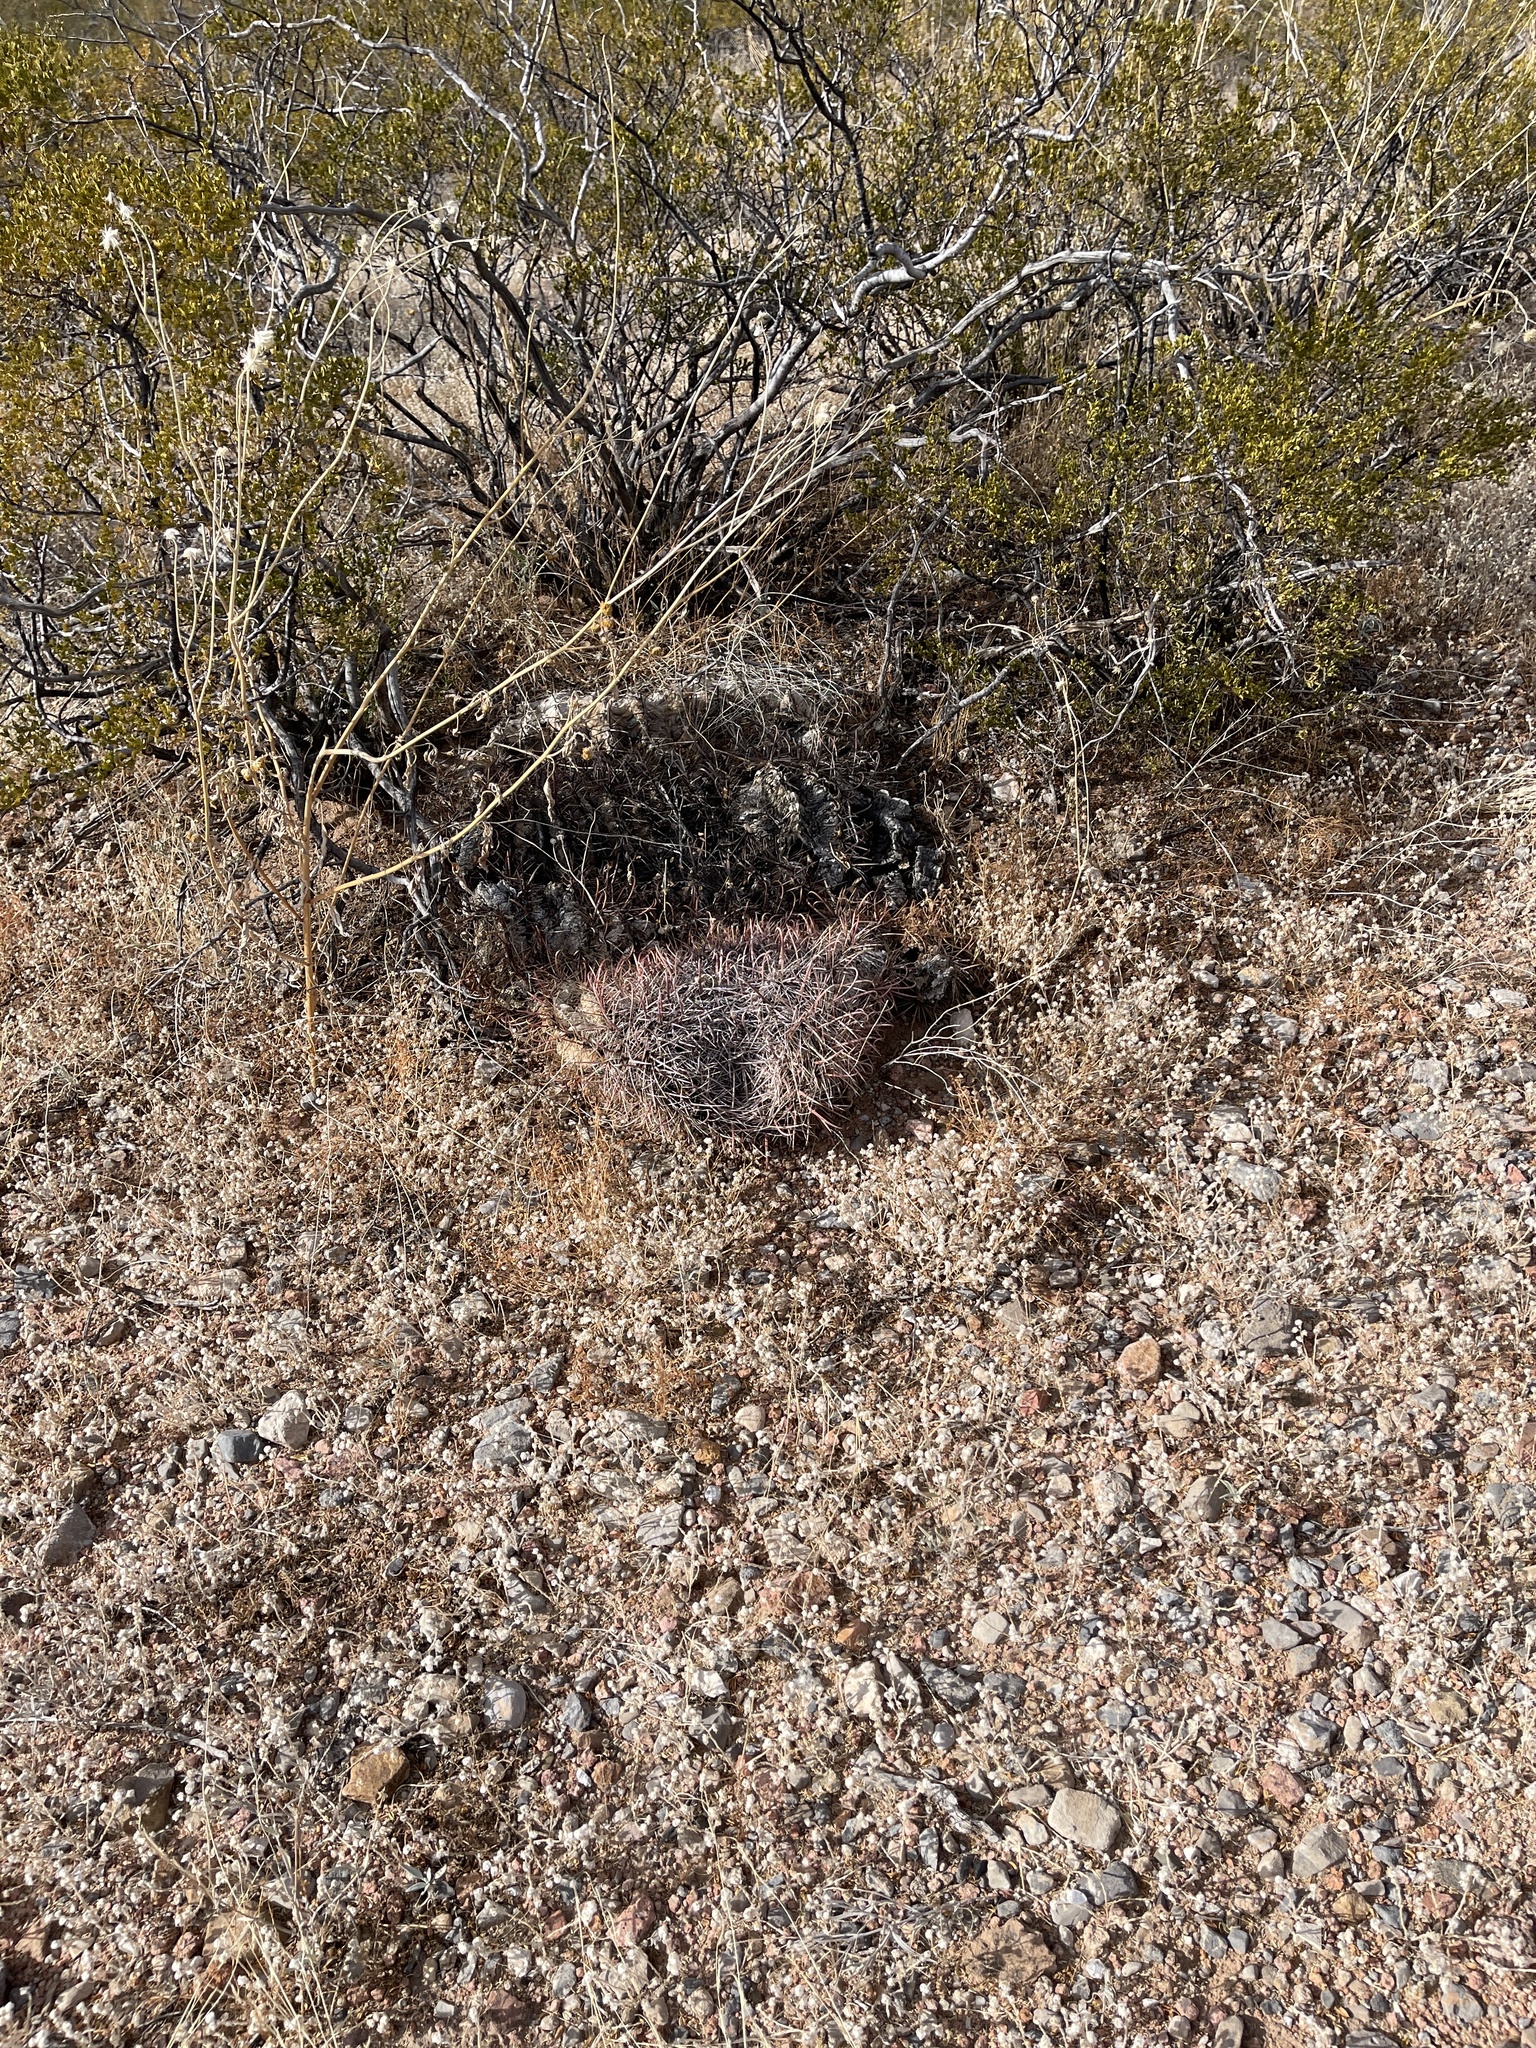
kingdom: Plantae
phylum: Tracheophyta
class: Magnoliopsida
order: Caryophyllales
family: Cactaceae
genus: Ferocactus
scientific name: Ferocactus wislizeni
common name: Candy barrel cactus
